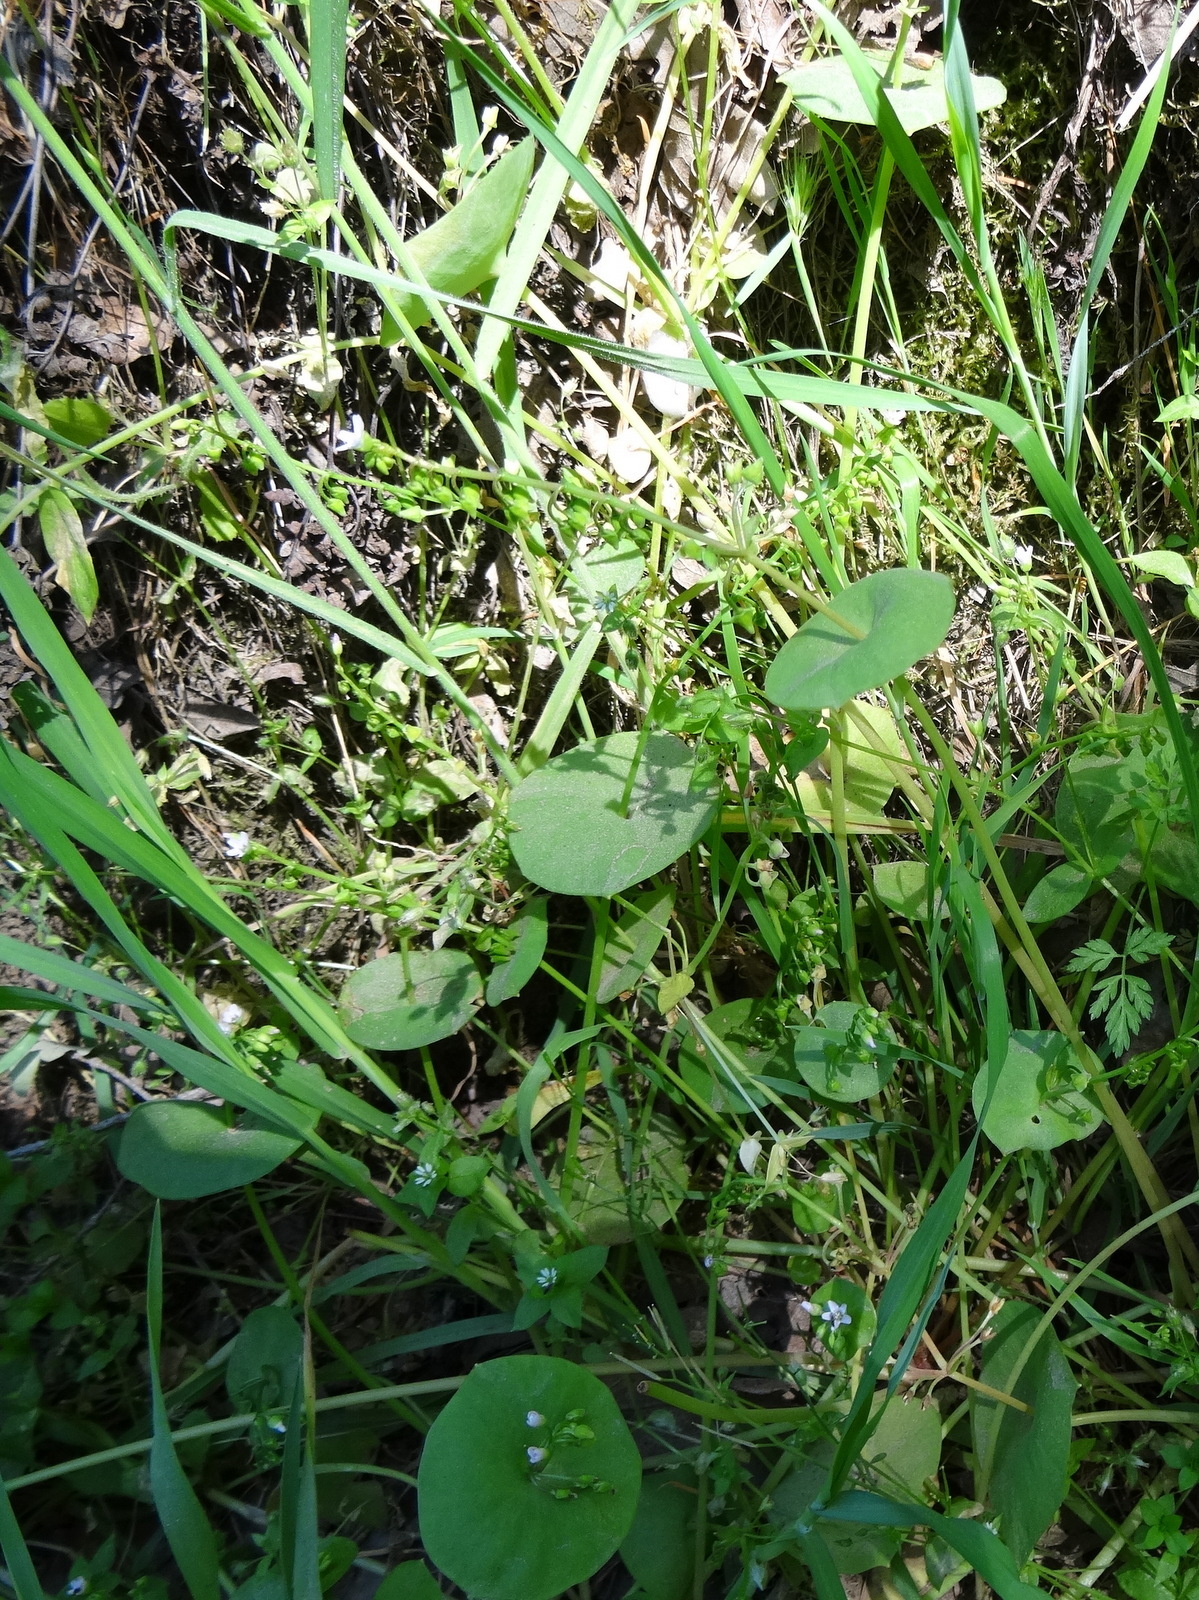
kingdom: Plantae
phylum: Tracheophyta
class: Magnoliopsida
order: Caryophyllales
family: Montiaceae
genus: Claytonia
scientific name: Claytonia perfoliata
